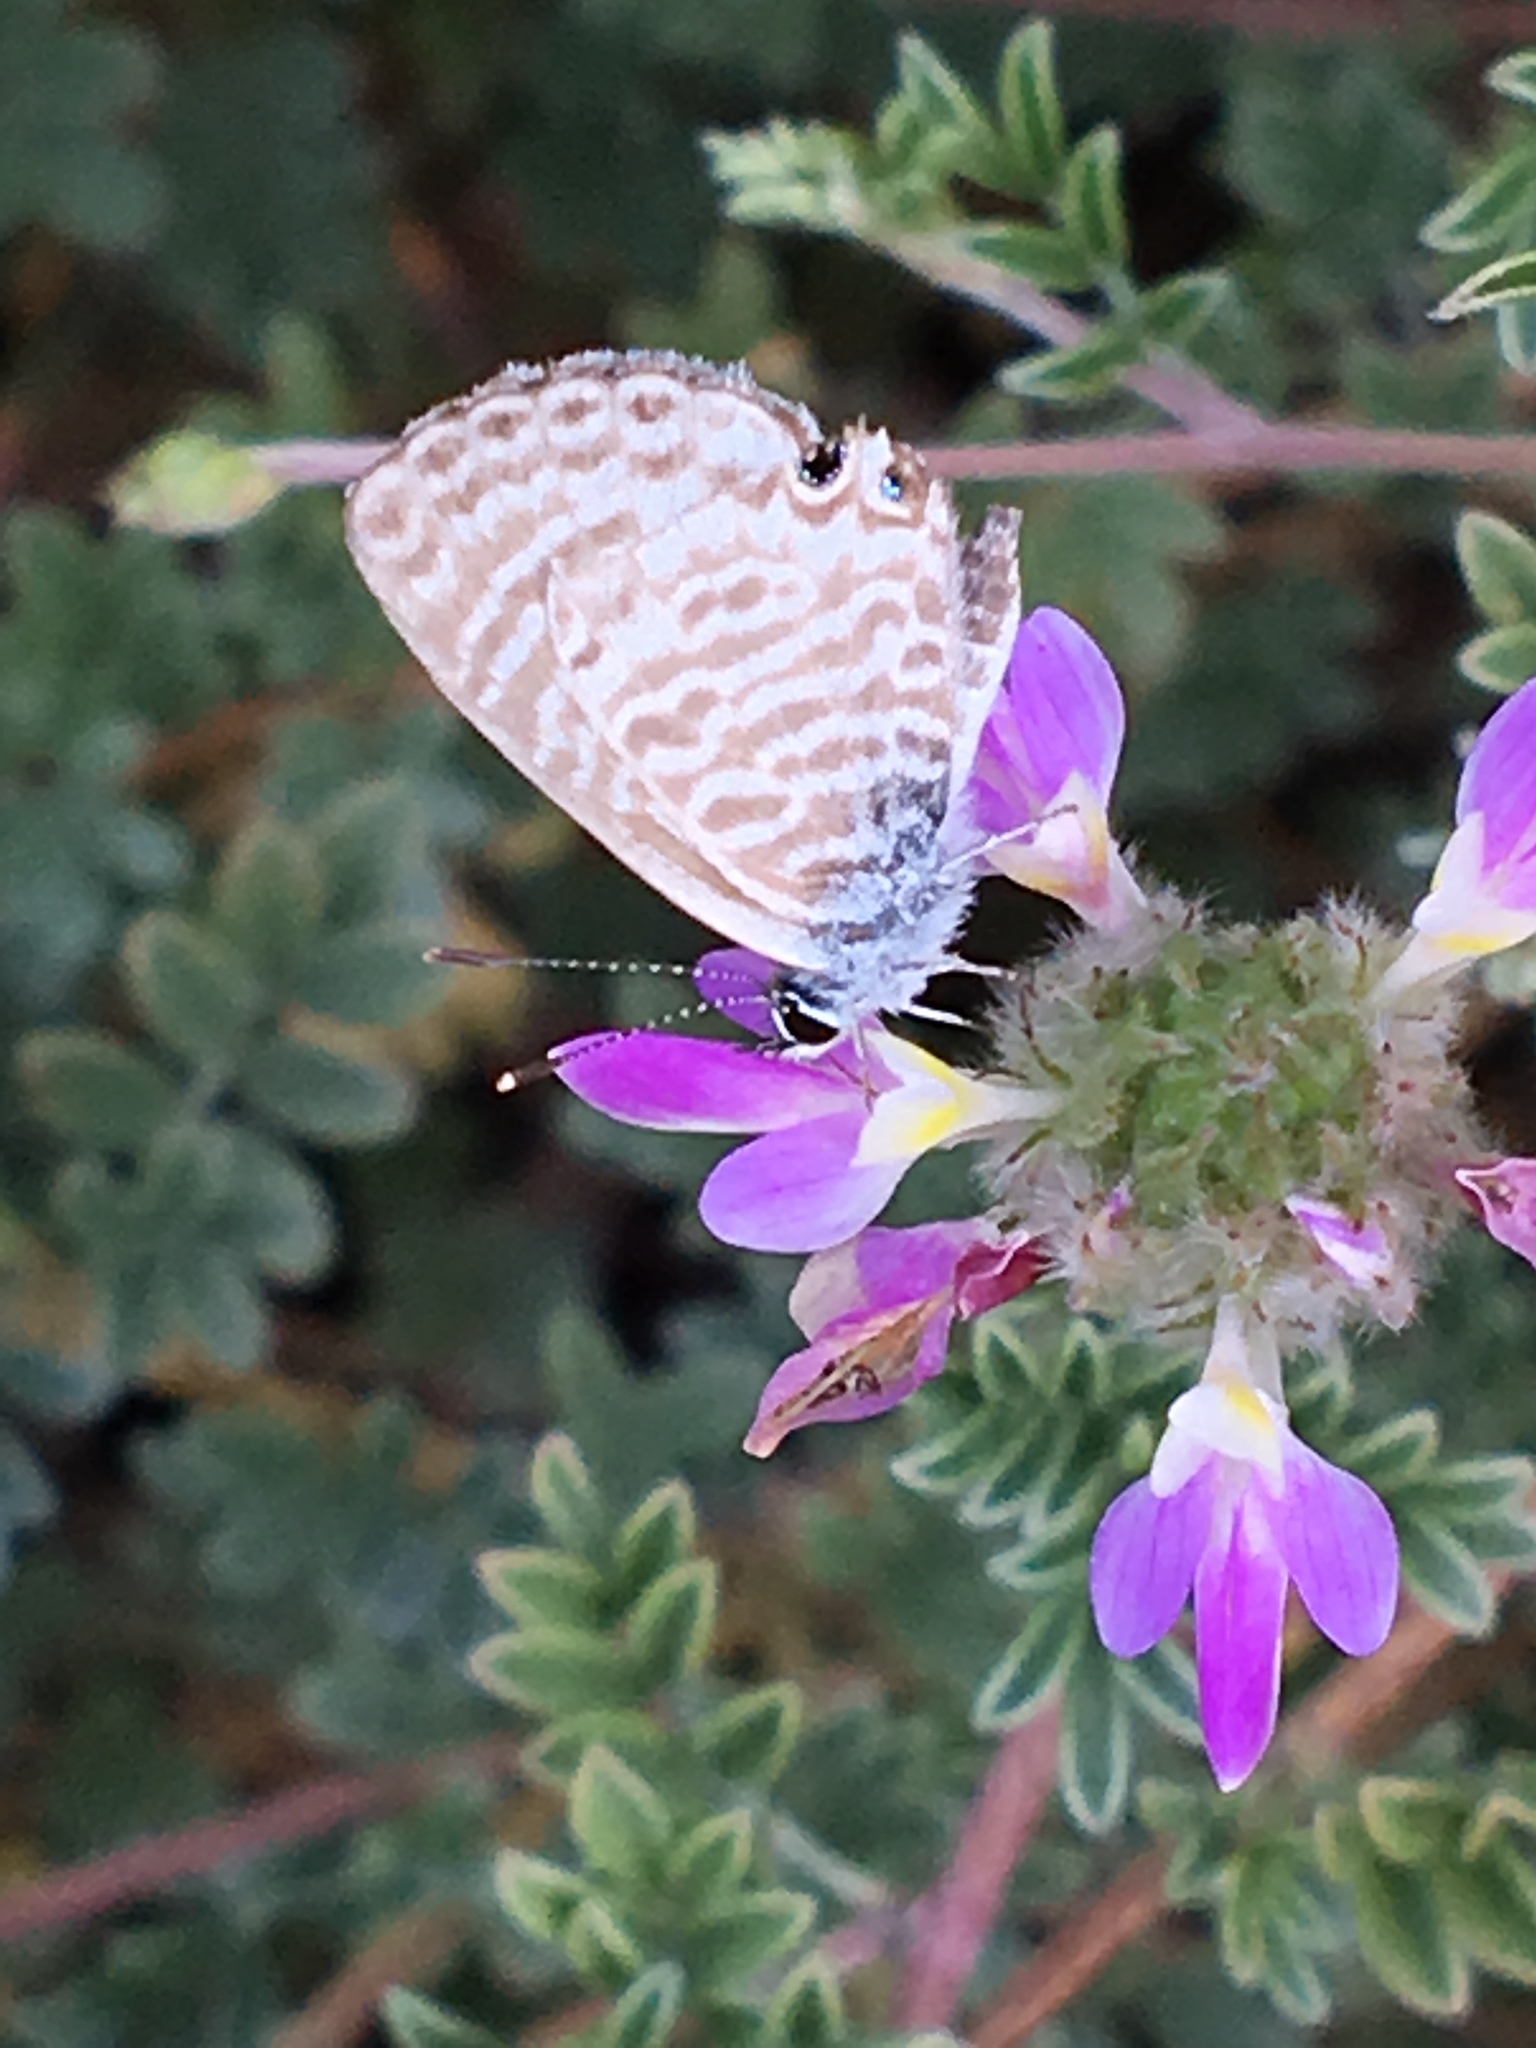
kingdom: Animalia
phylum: Arthropoda
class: Insecta
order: Lepidoptera
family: Lycaenidae
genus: Leptotes
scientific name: Leptotes marina
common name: Marine blue
